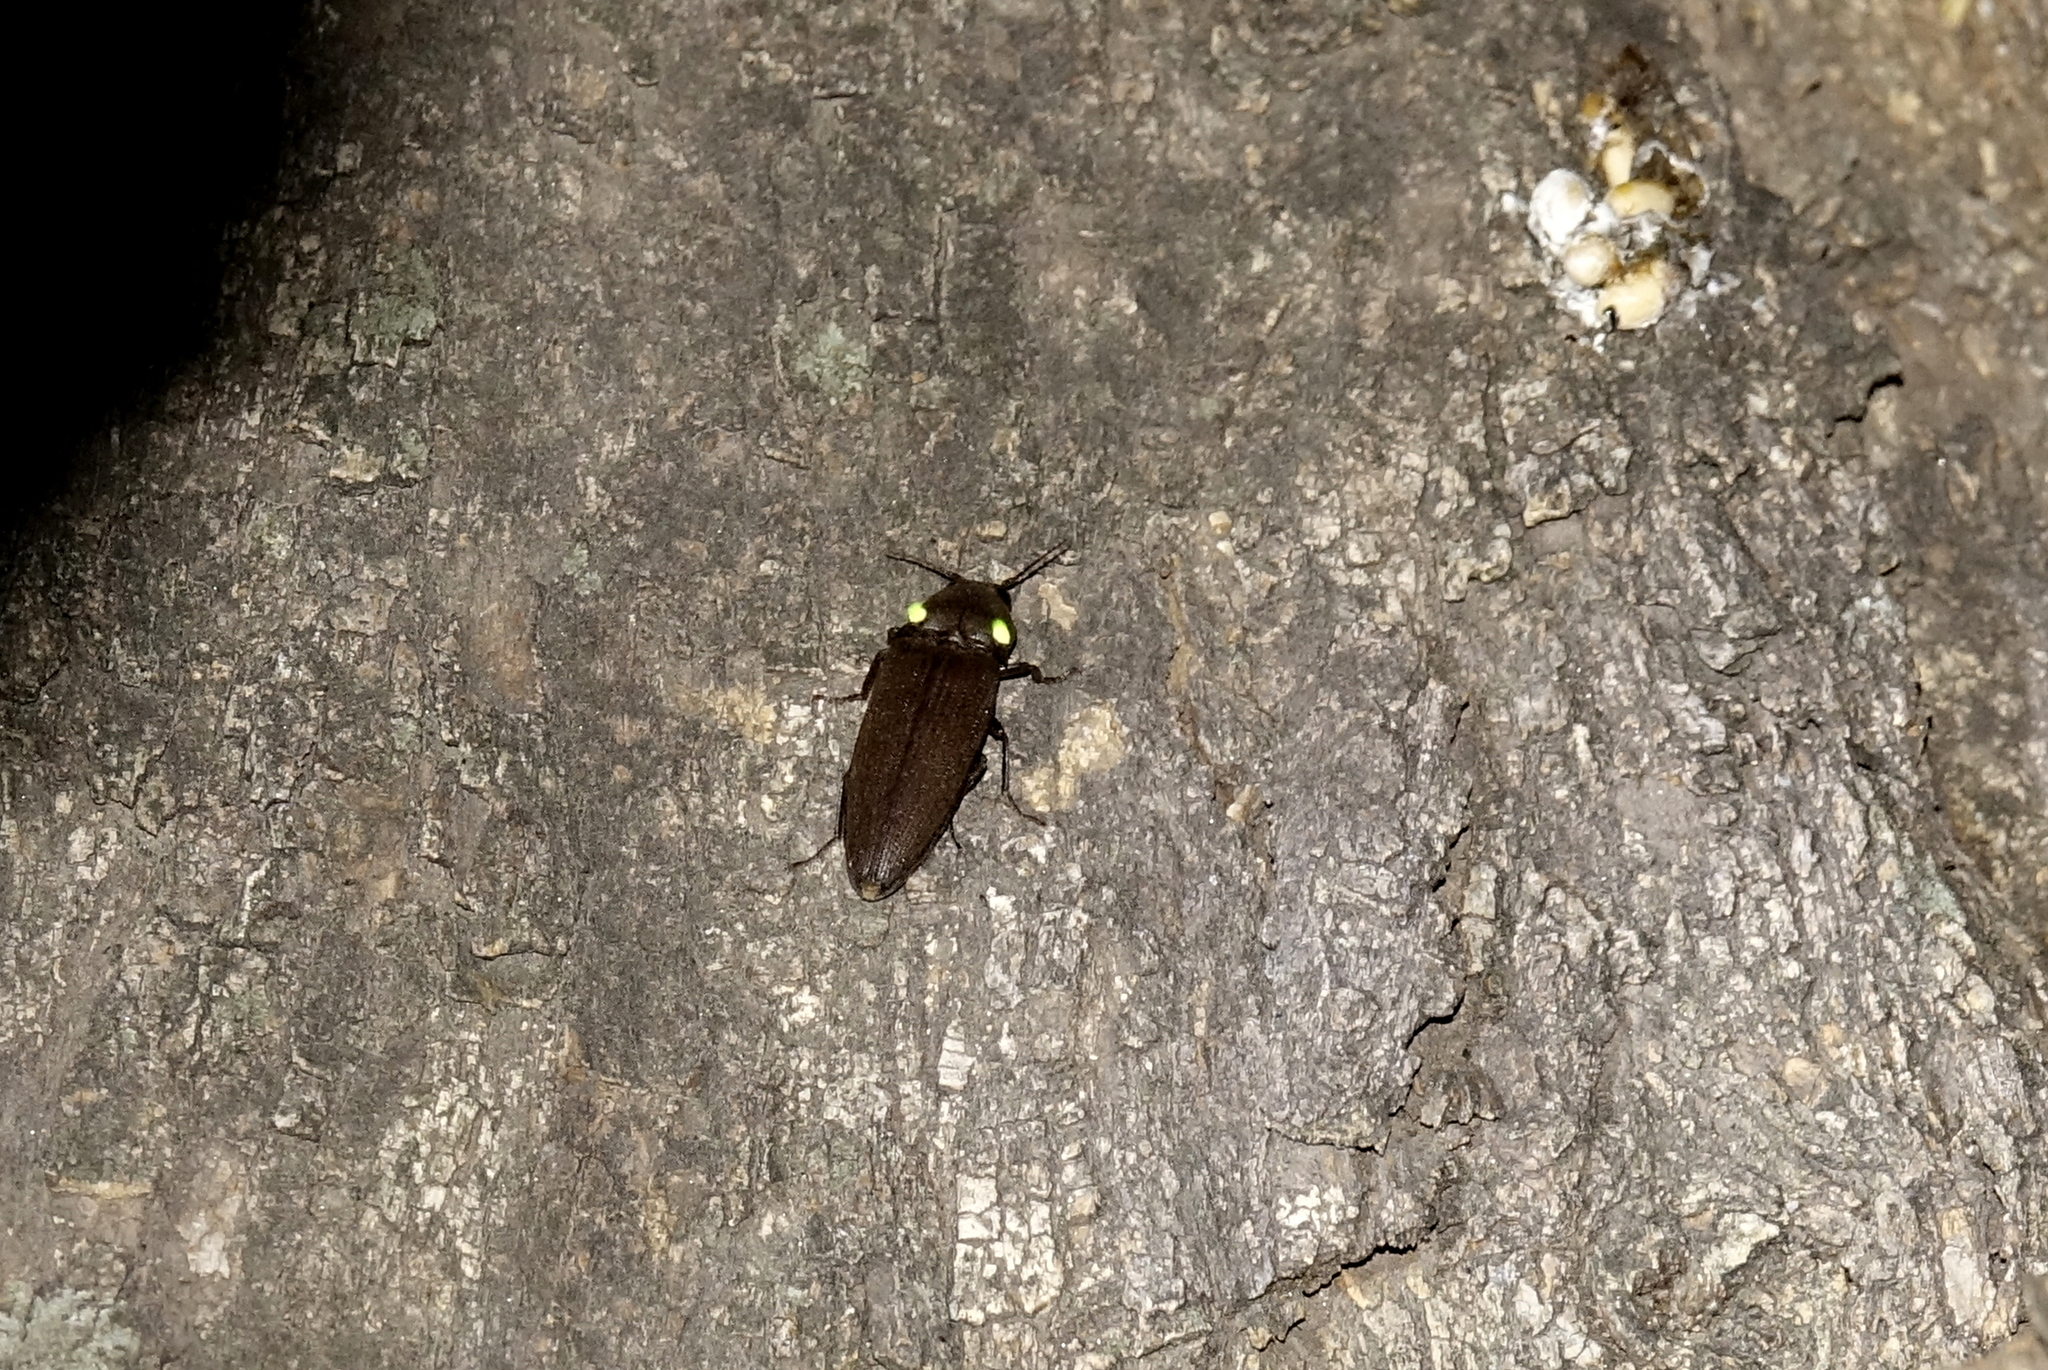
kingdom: Animalia
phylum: Arthropoda
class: Insecta
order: Coleoptera
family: Elateridae
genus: Pyrophorus
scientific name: Pyrophorus
